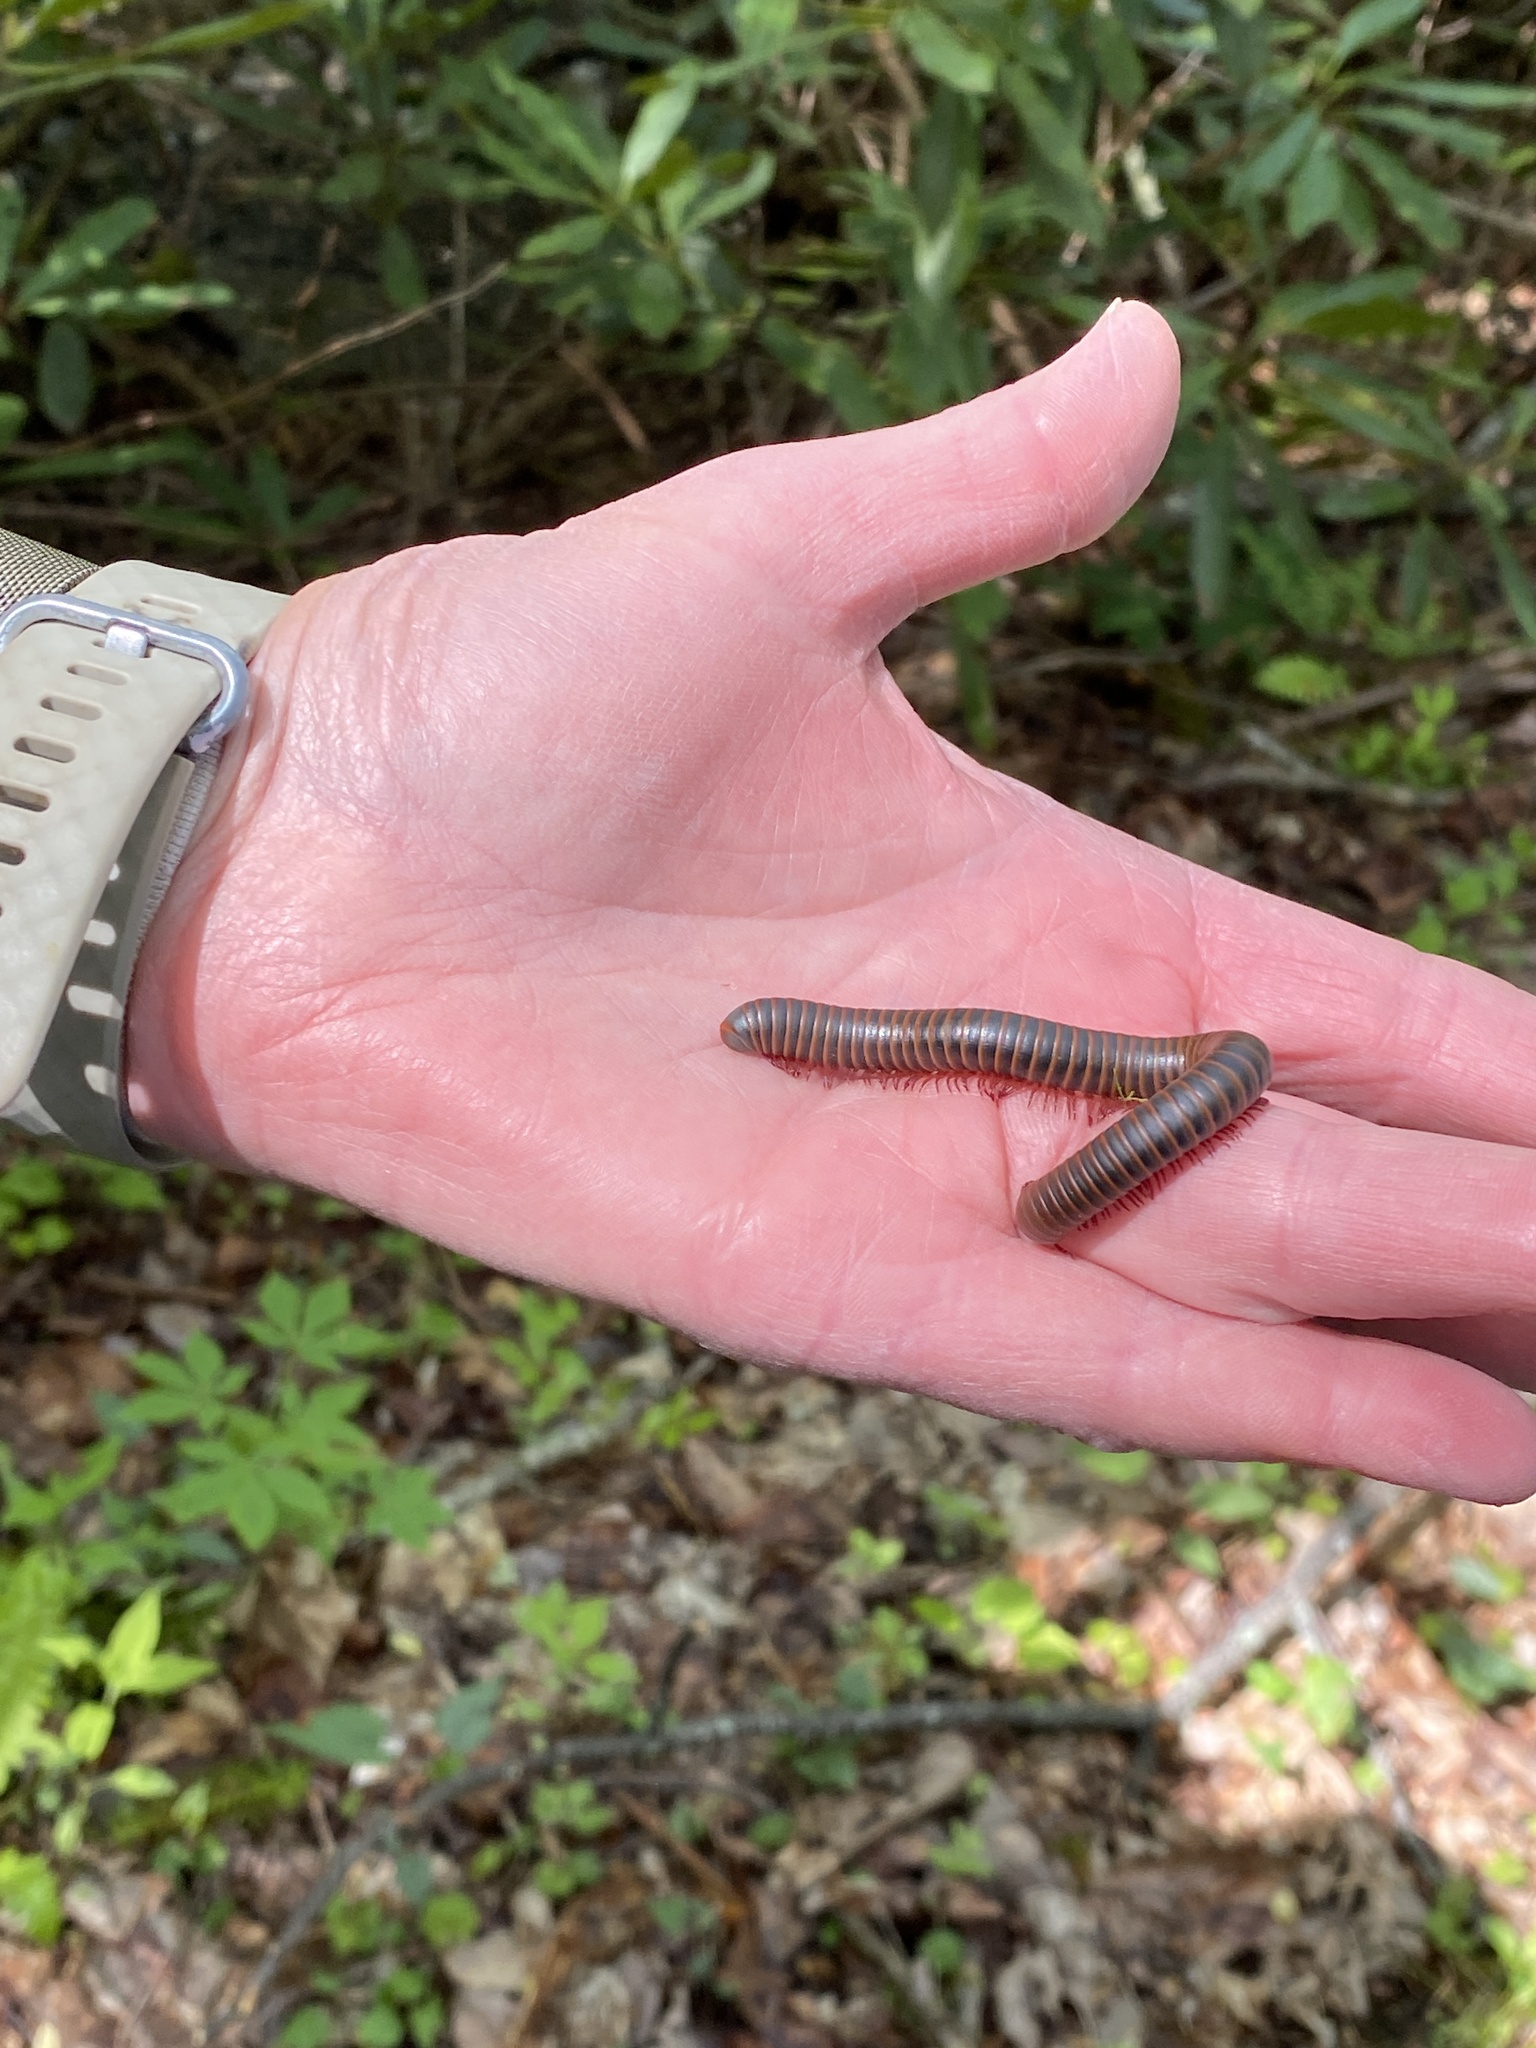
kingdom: Animalia
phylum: Arthropoda
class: Diplopoda
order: Spirobolida
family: Spirobolidae
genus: Narceus
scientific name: Narceus
